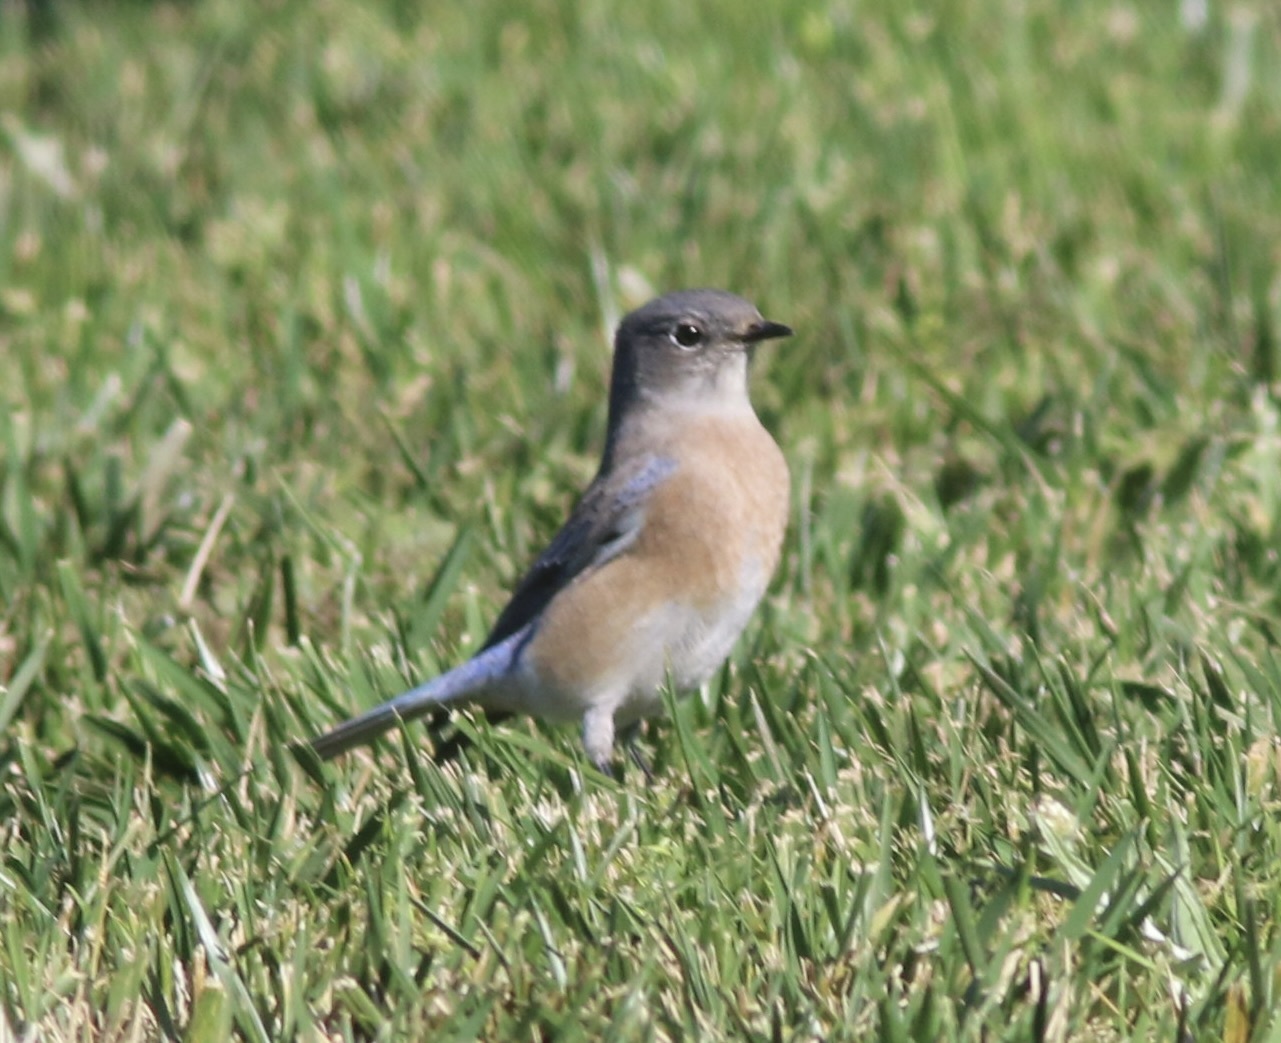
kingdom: Animalia
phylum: Chordata
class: Aves
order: Passeriformes
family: Turdidae
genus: Sialia
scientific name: Sialia mexicana
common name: Western bluebird
